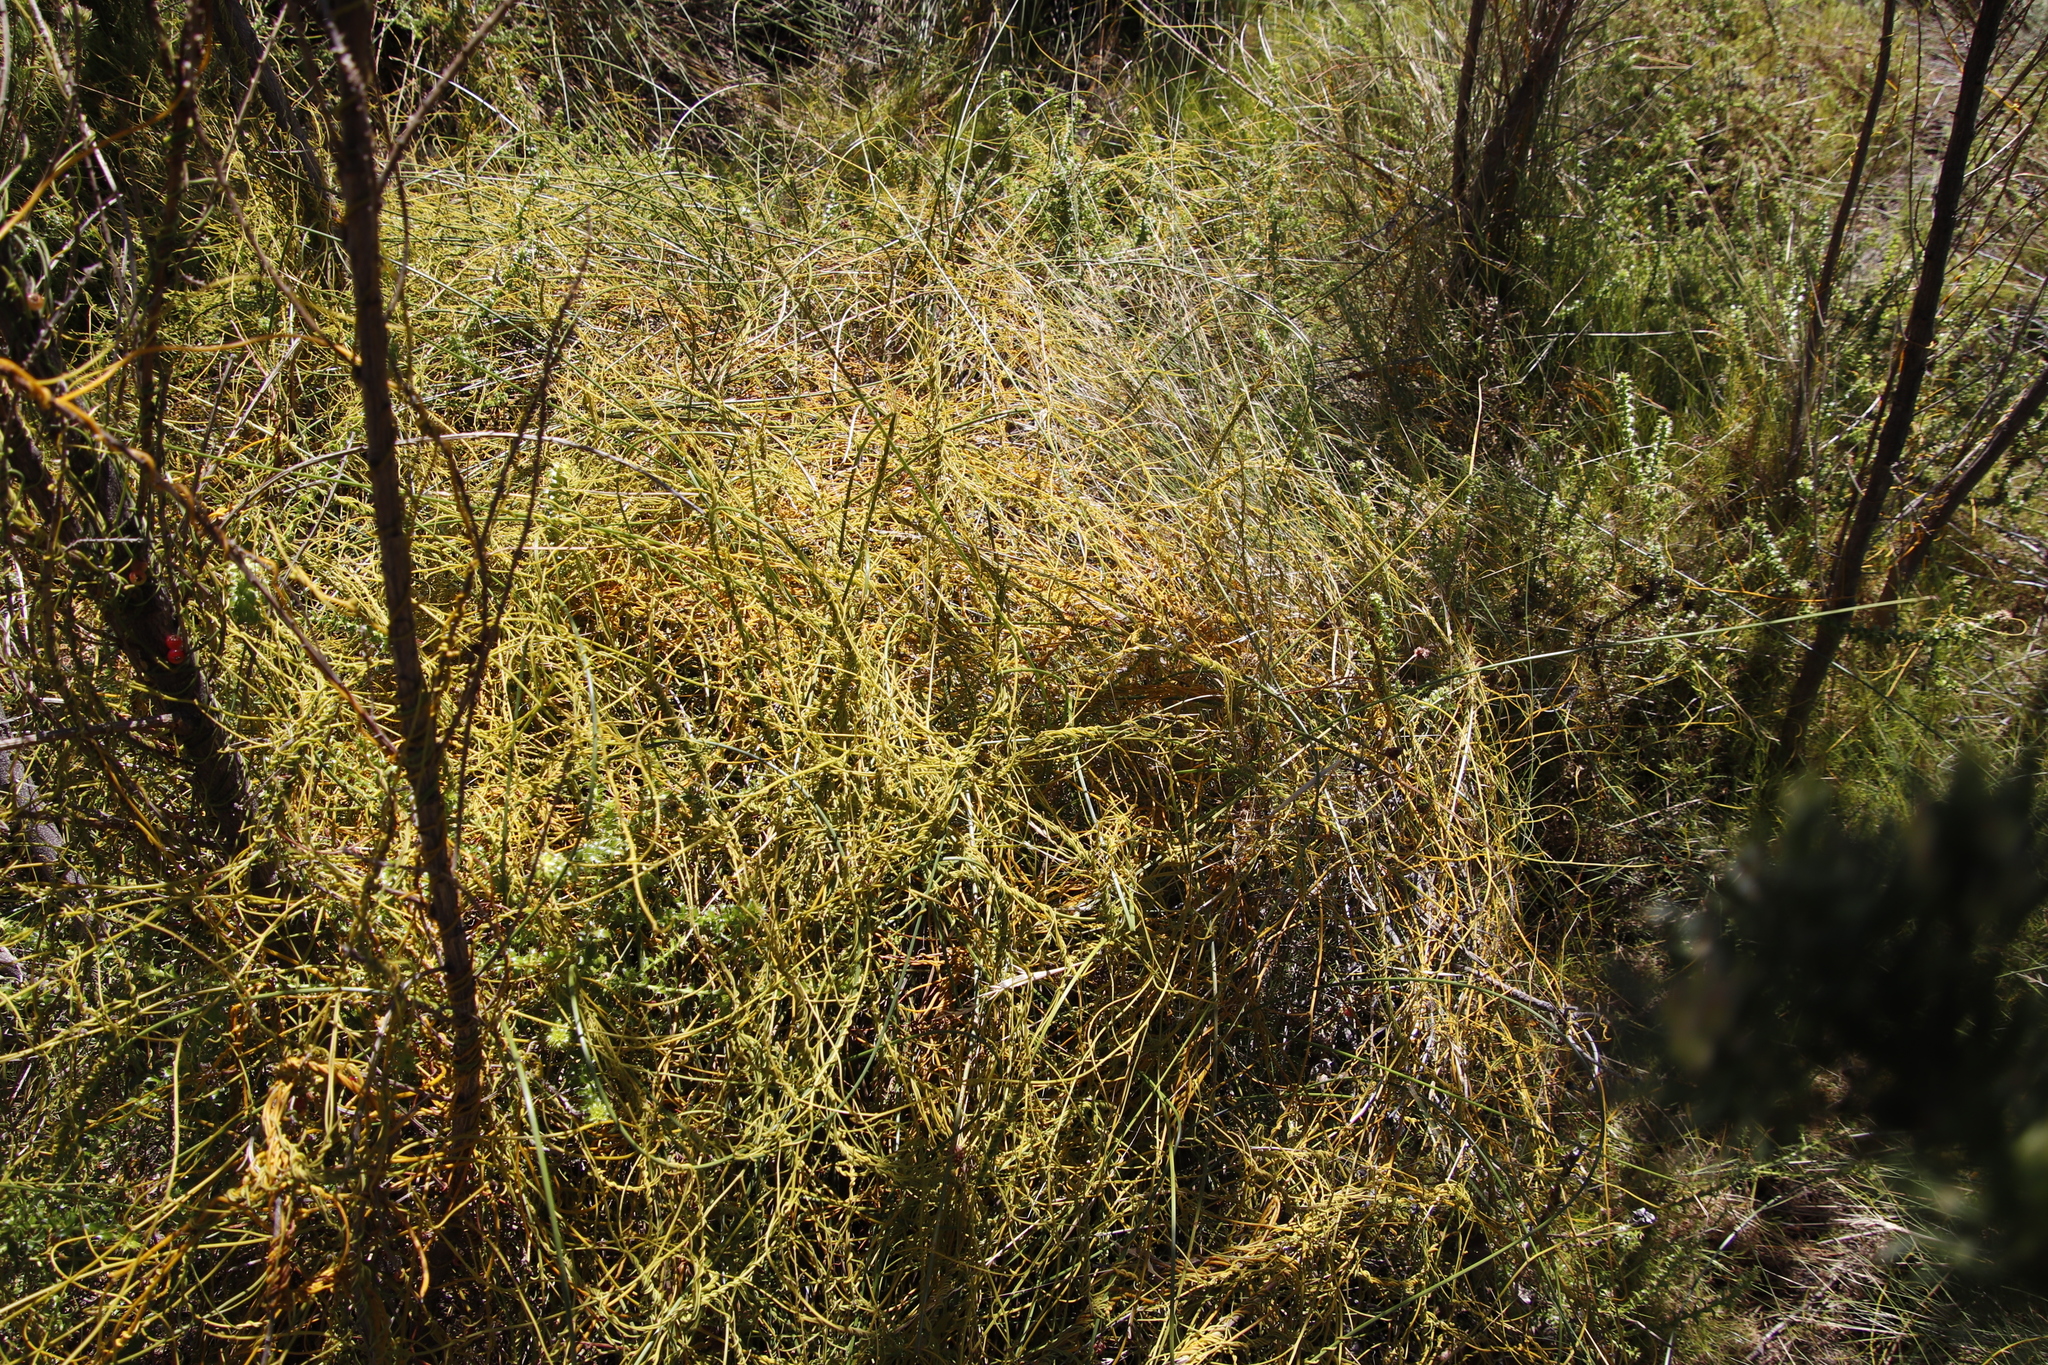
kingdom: Plantae
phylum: Tracheophyta
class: Magnoliopsida
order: Laurales
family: Lauraceae
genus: Cassytha
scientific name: Cassytha ciliolata
